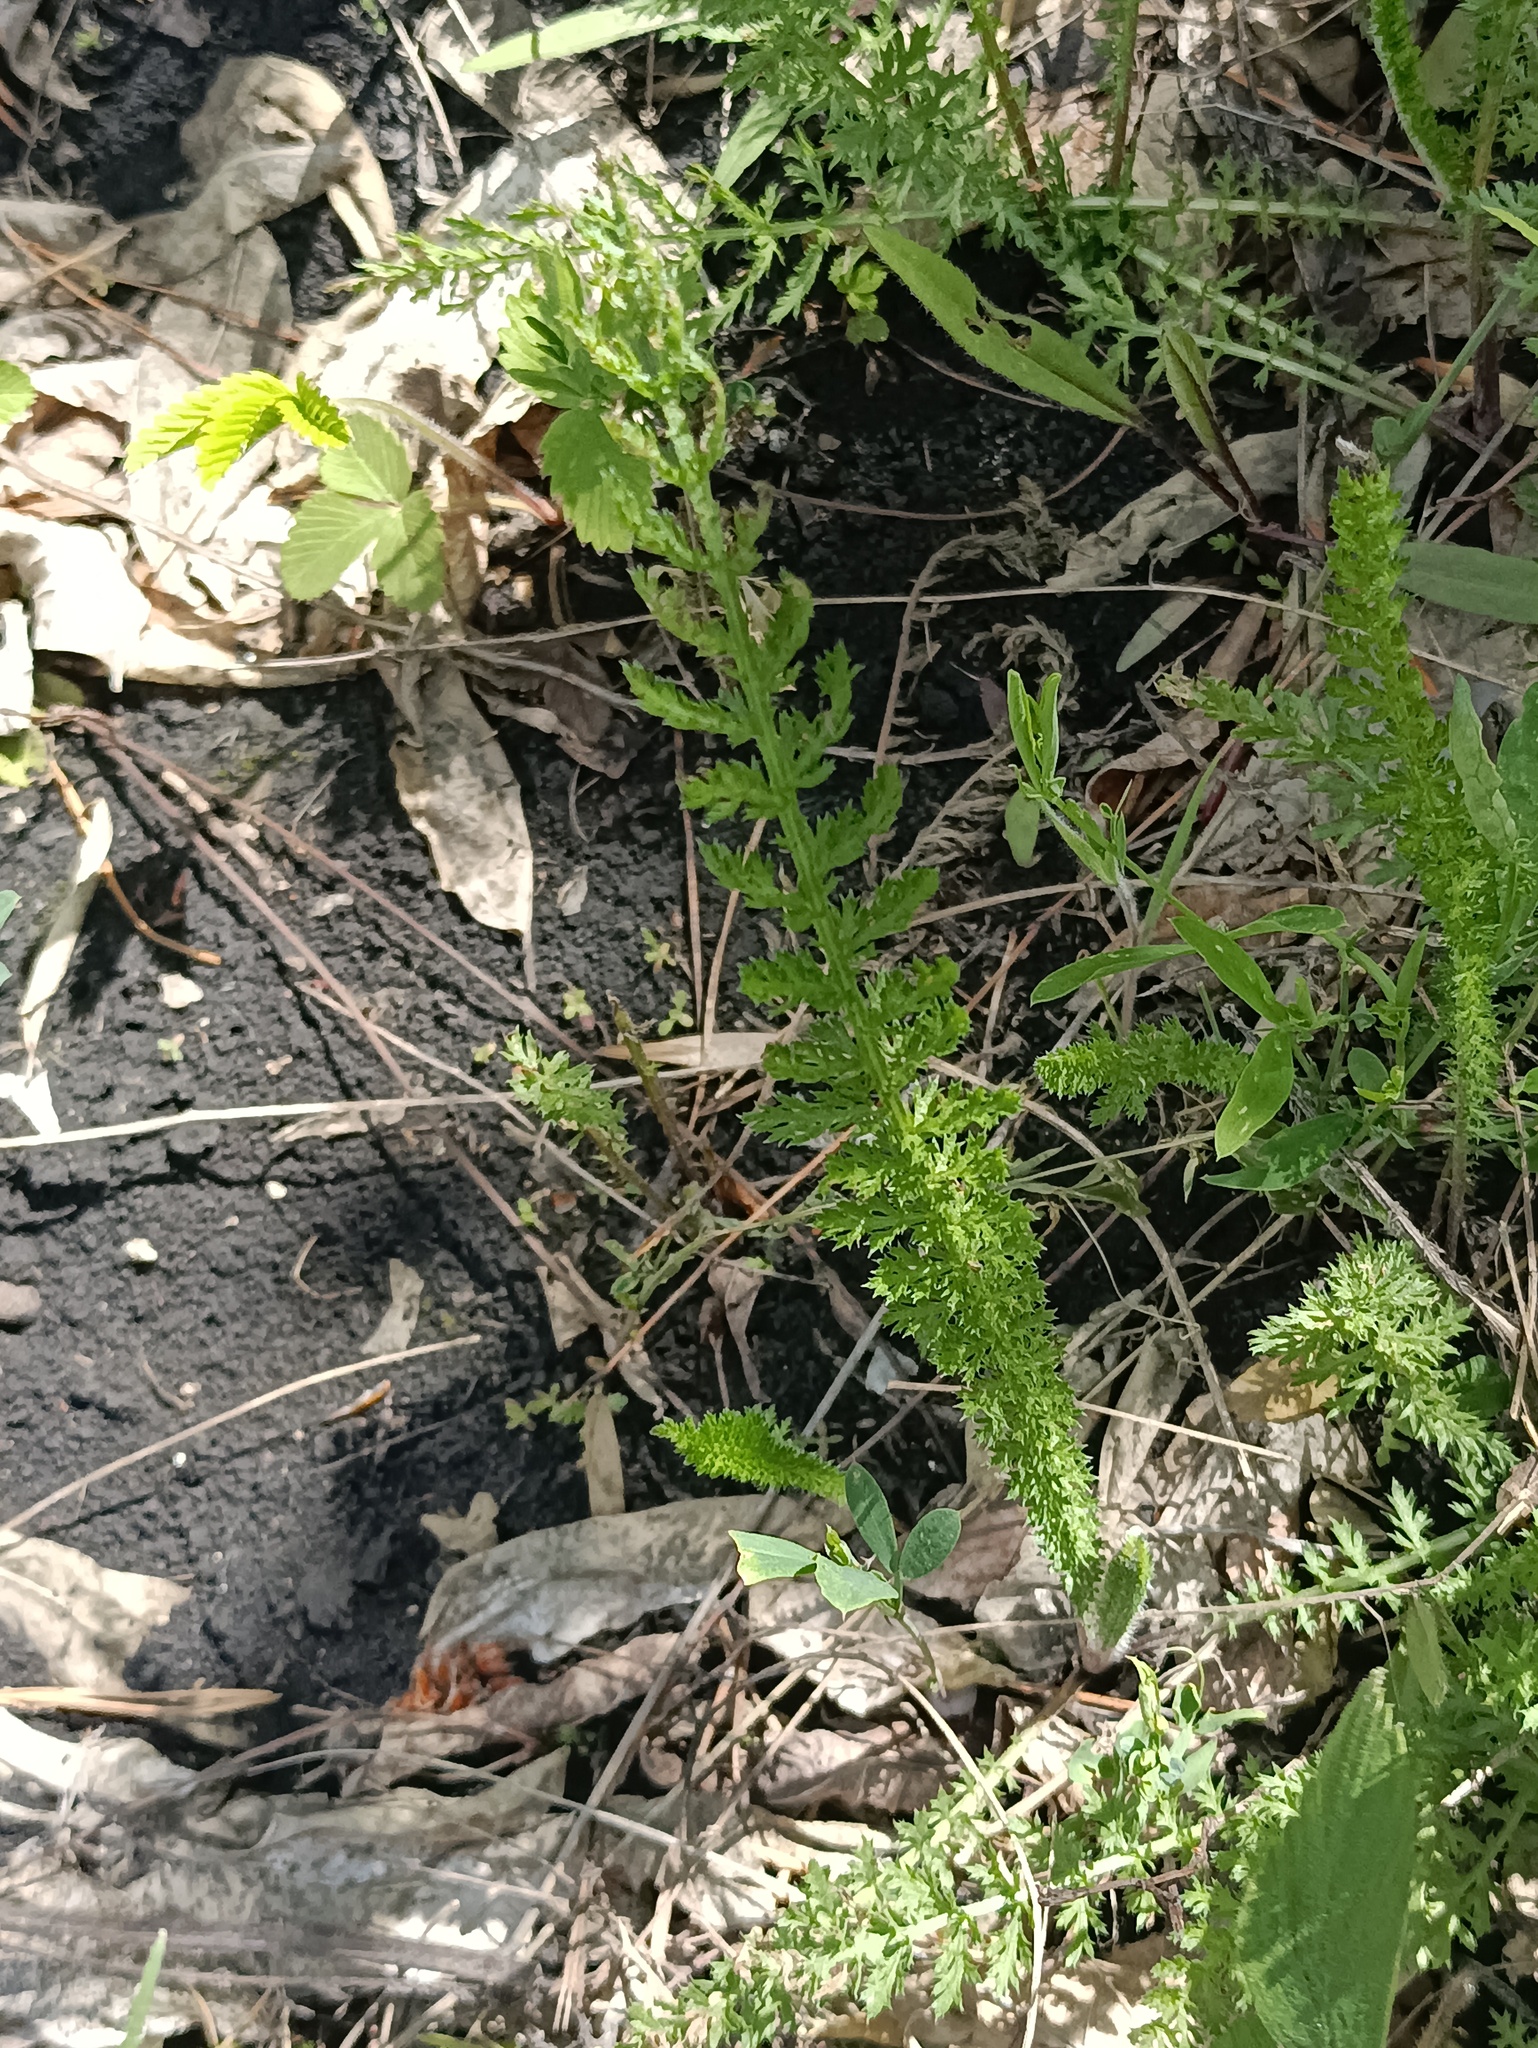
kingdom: Plantae
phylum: Tracheophyta
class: Magnoliopsida
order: Asterales
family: Asteraceae
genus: Achillea
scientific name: Achillea setacea
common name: Bristly yarrow
